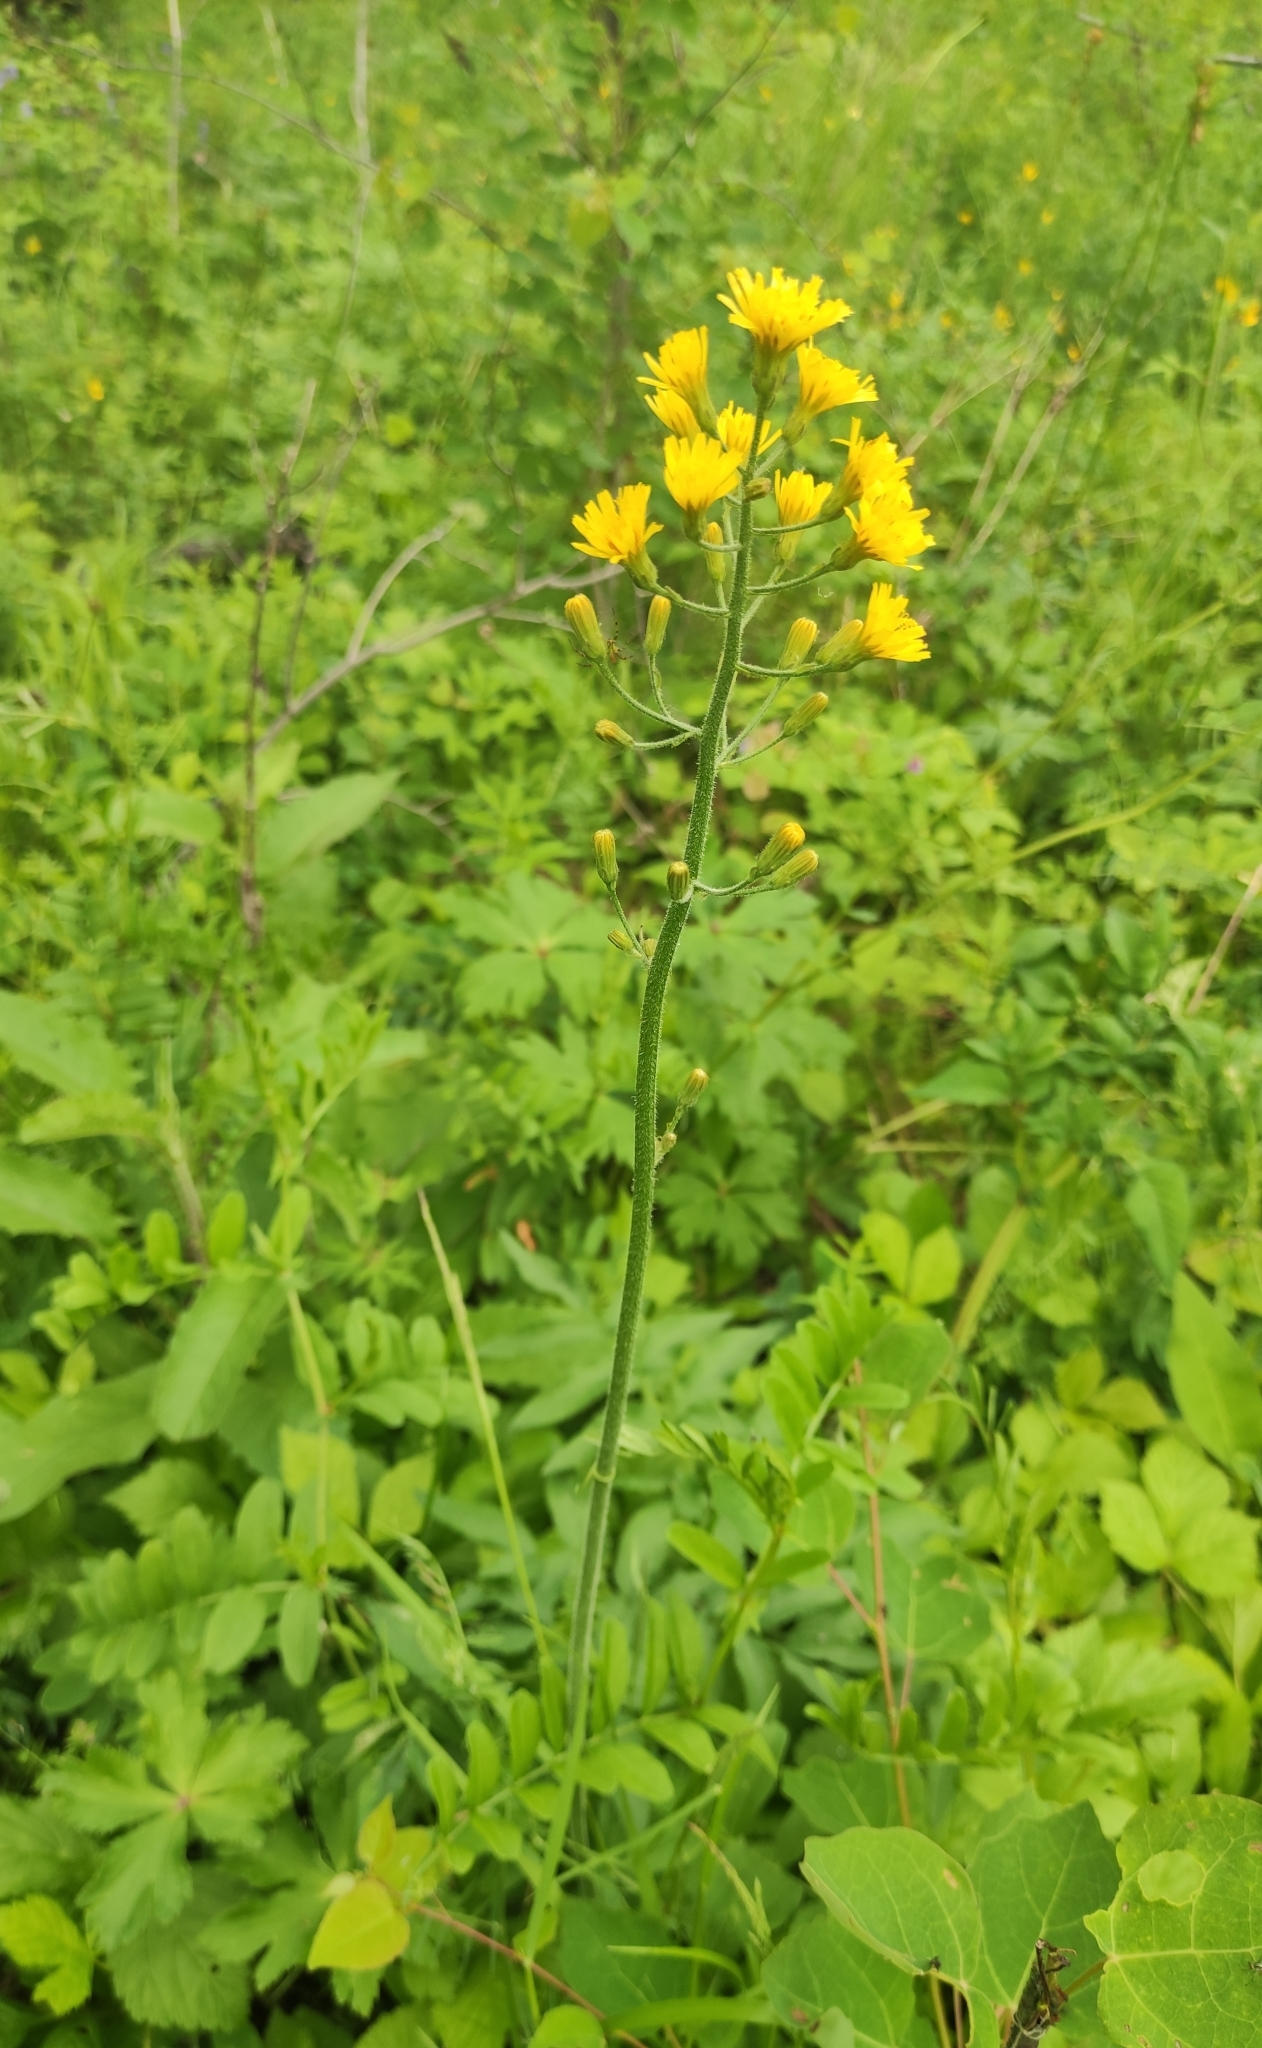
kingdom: Plantae
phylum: Tracheophyta
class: Magnoliopsida
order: Asterales
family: Asteraceae
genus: Crepis
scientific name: Crepis praemorsa
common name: Leafless hawk's-beard
